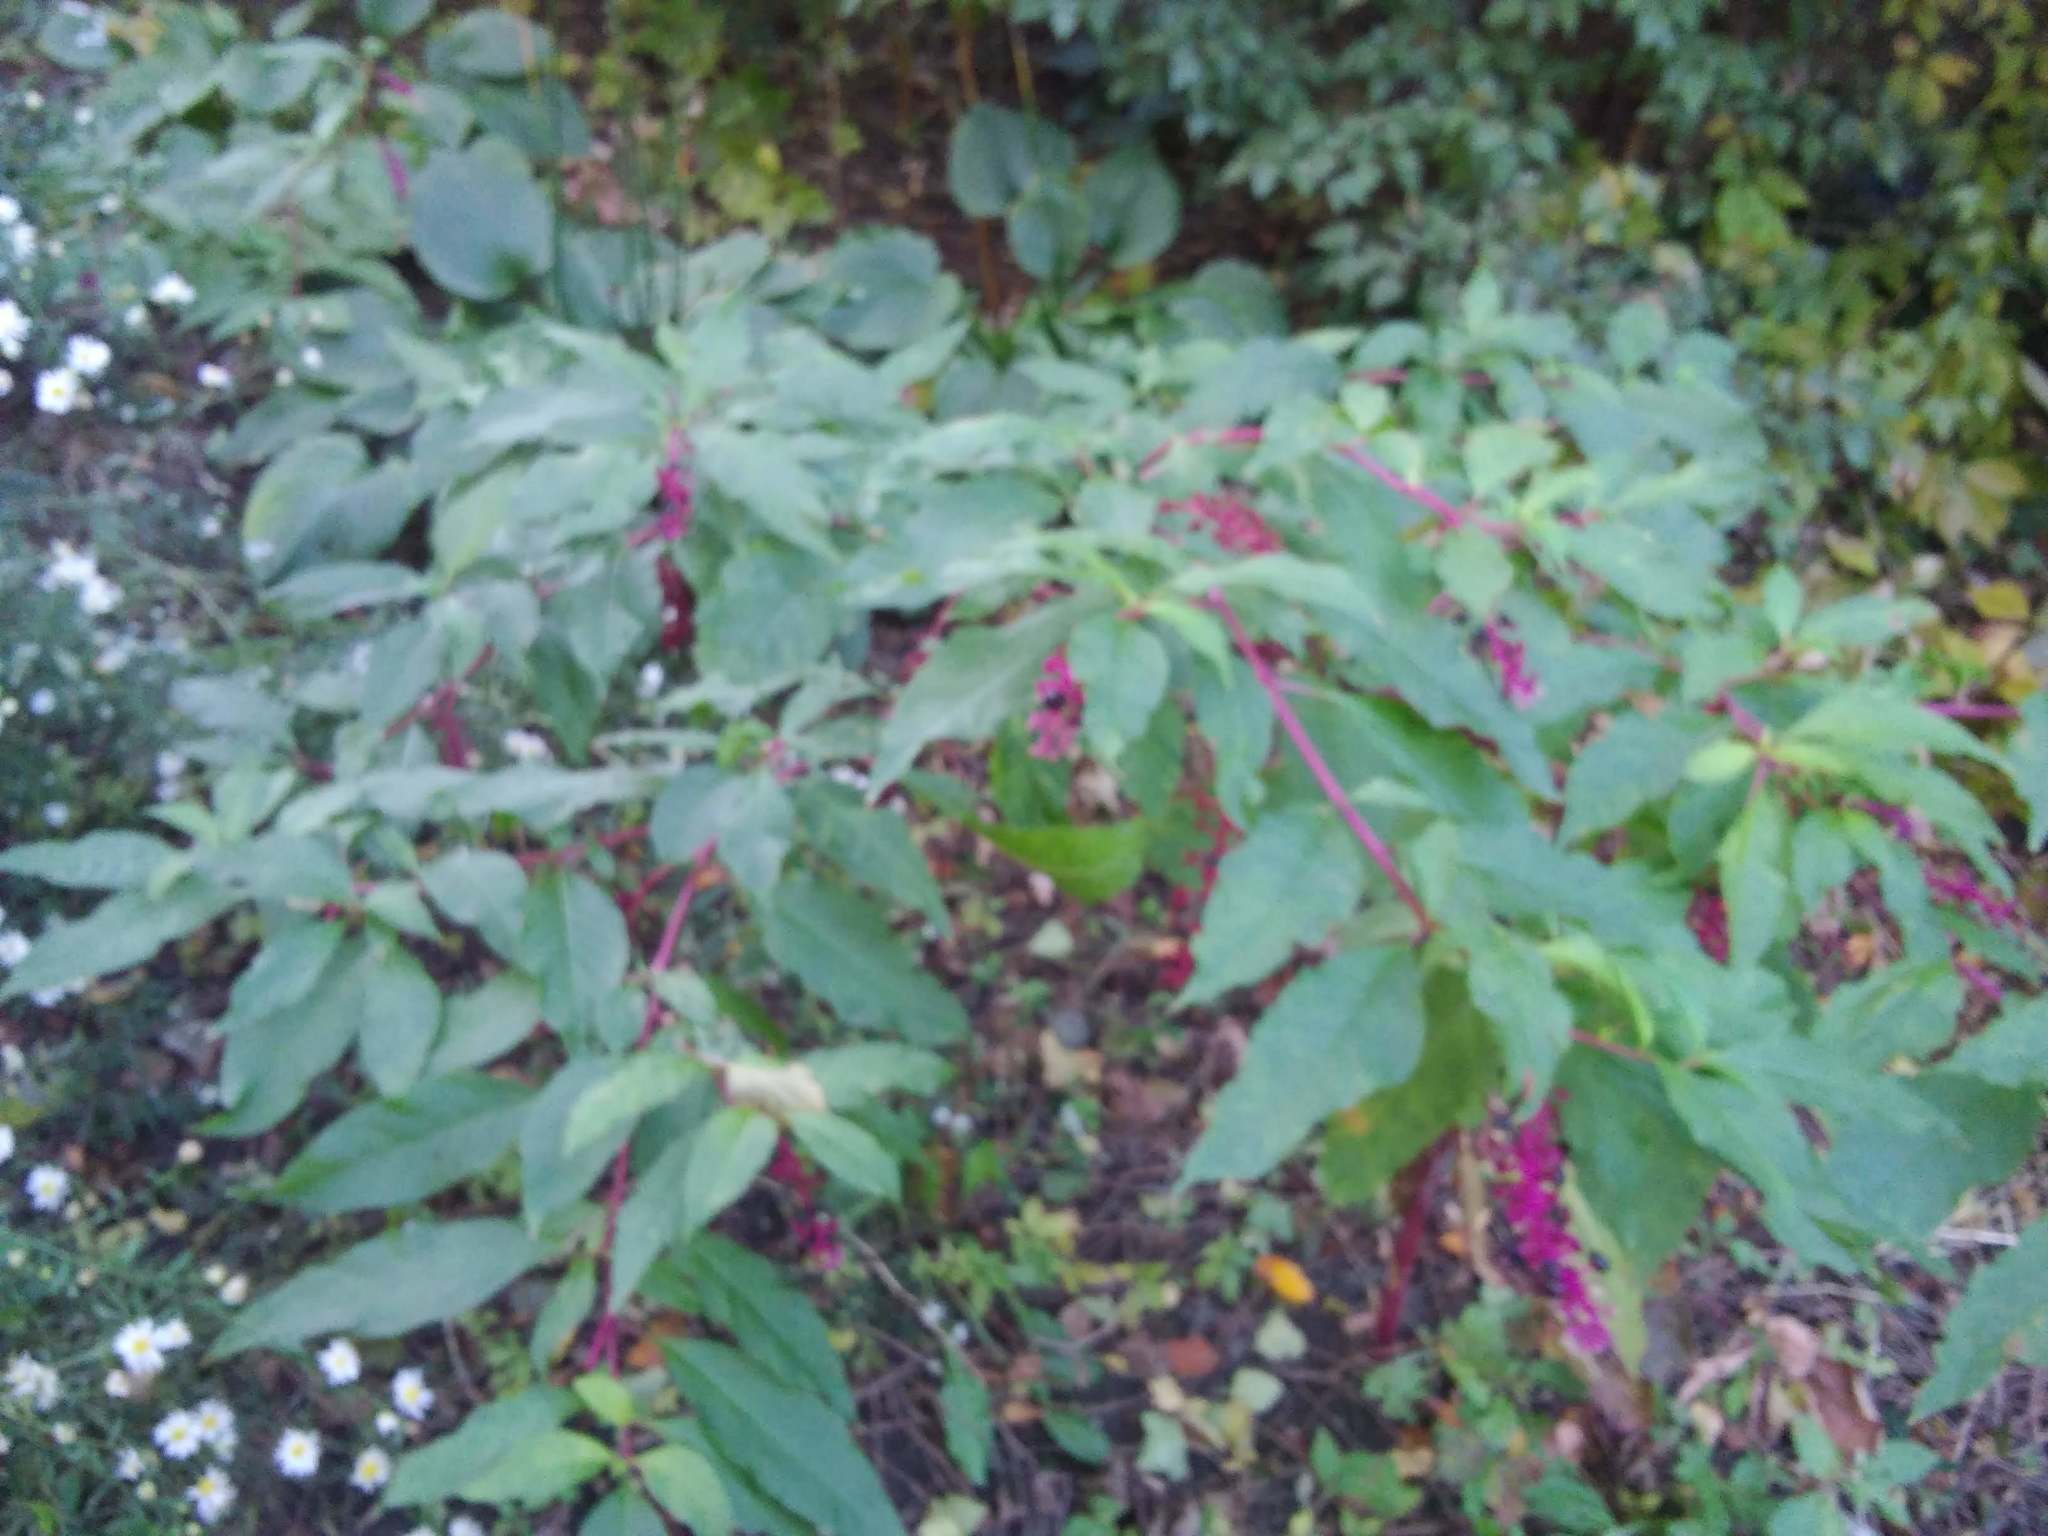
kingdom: Plantae
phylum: Tracheophyta
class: Magnoliopsida
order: Caryophyllales
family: Phytolaccaceae
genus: Phytolacca
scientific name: Phytolacca americana
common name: American pokeweed
